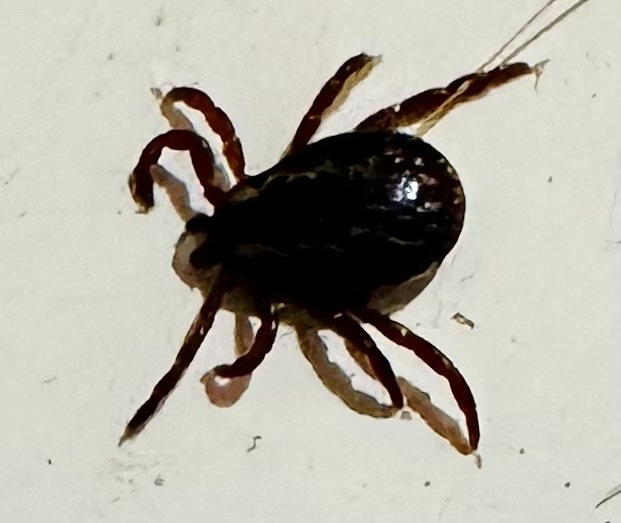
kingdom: Animalia
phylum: Arthropoda
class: Arachnida
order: Ixodida
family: Ixodidae
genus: Dermacentor
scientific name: Dermacentor variabilis
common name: American dog tick
